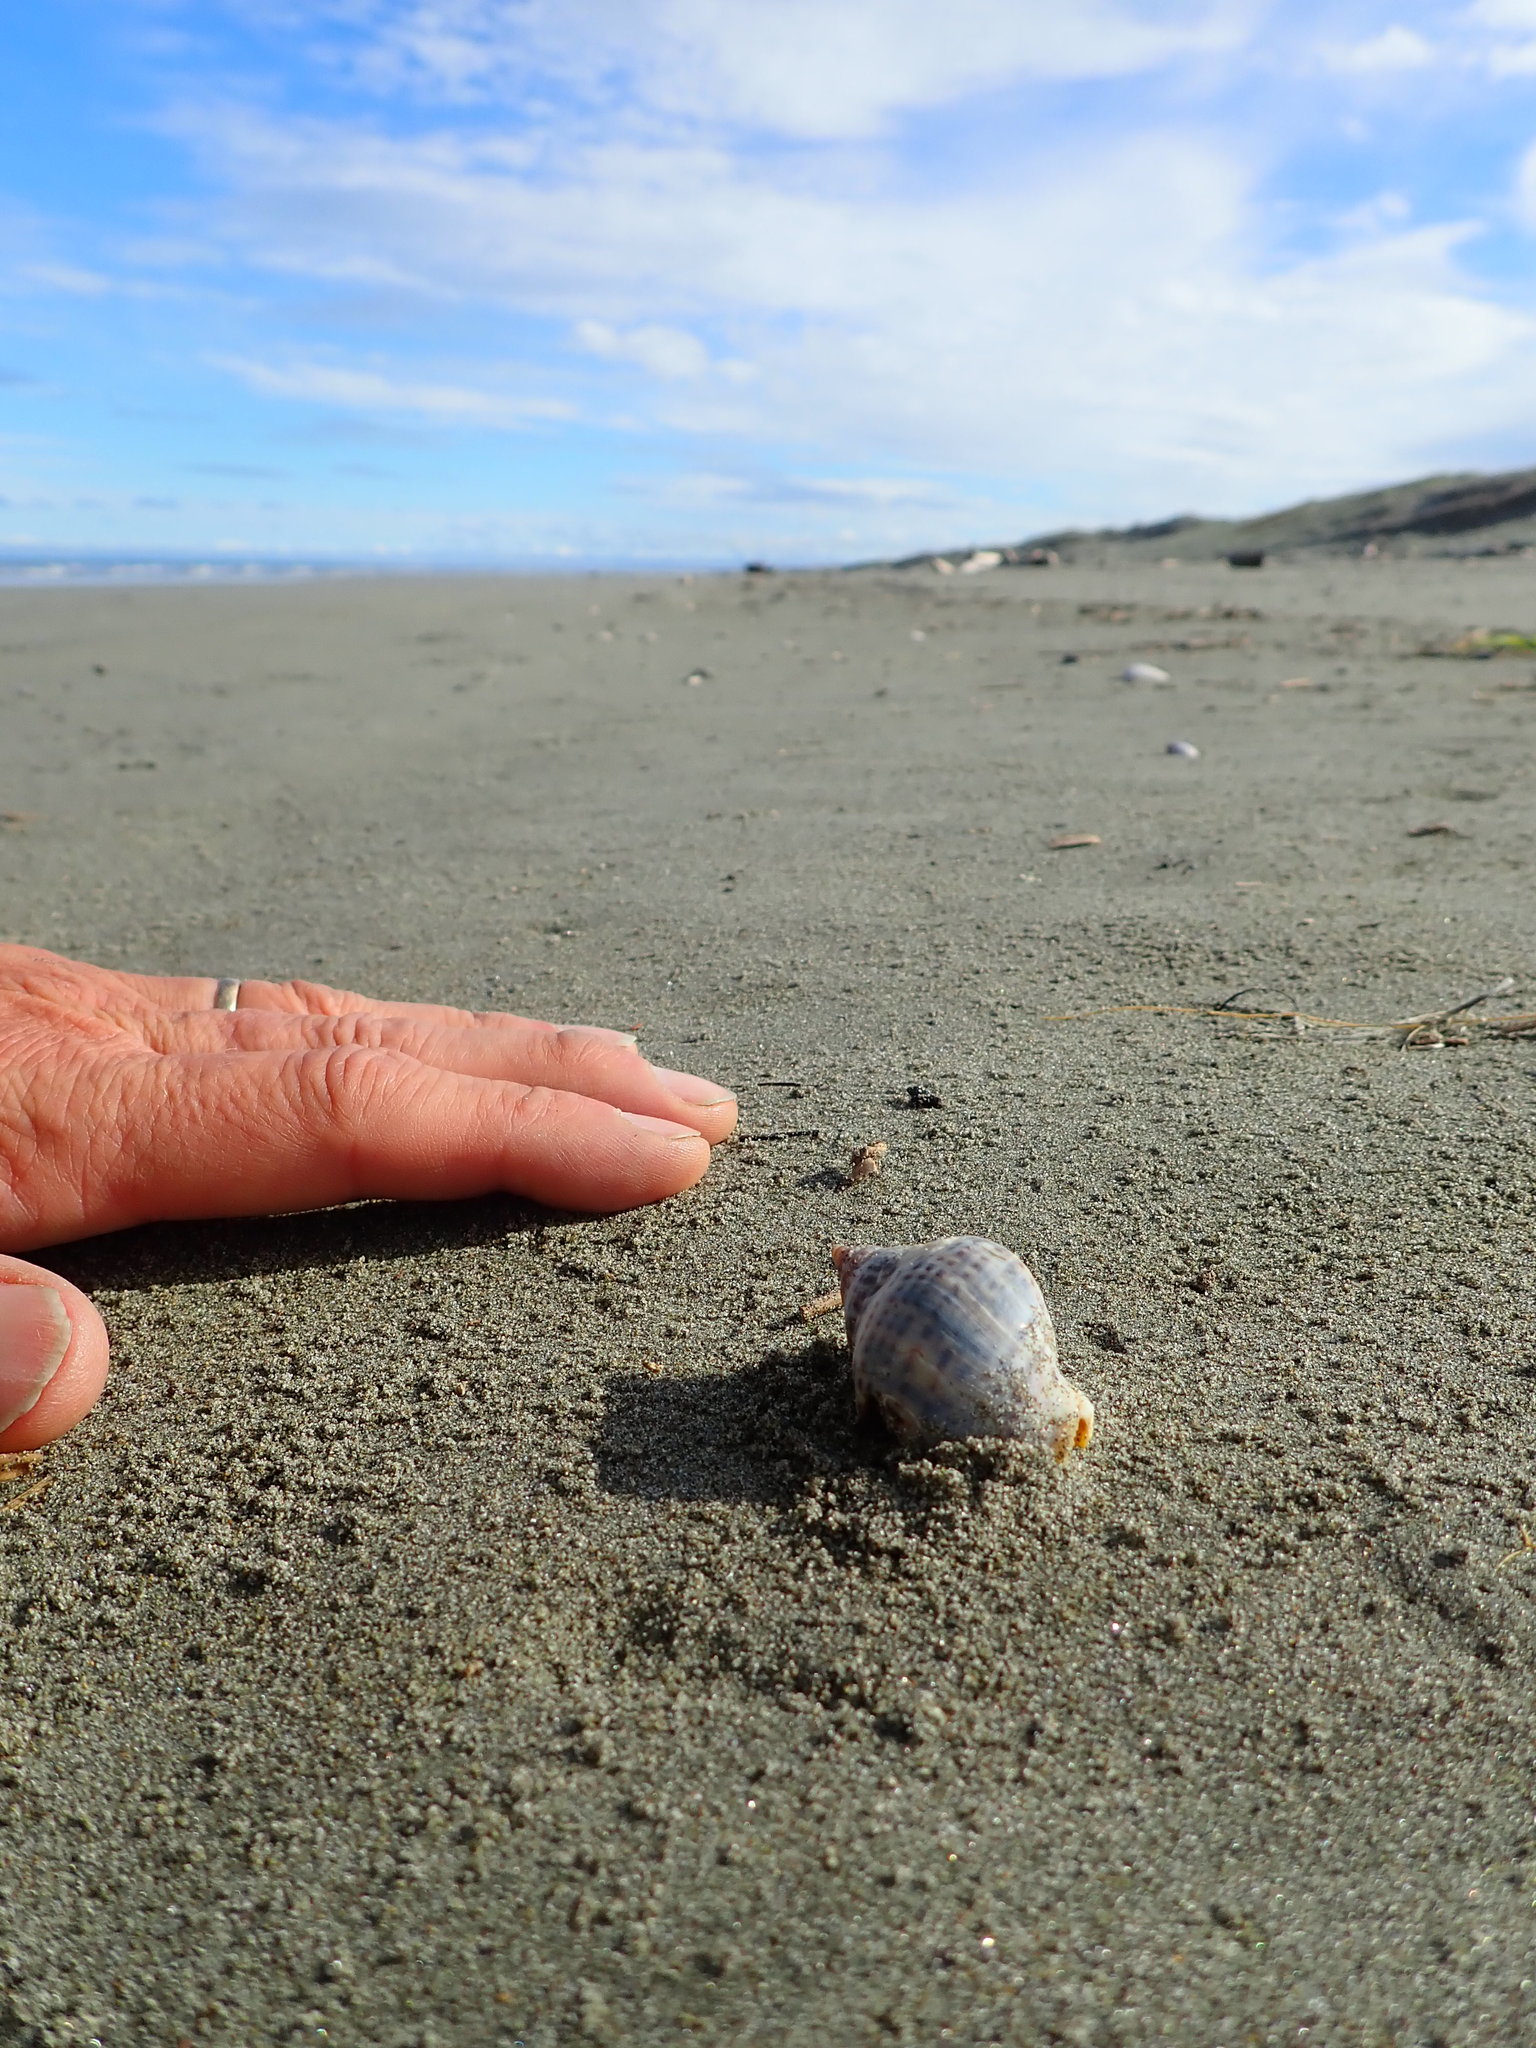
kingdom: Animalia
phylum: Mollusca
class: Gastropoda
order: Neogastropoda
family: Cominellidae
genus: Cominella
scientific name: Cominella adspersa
